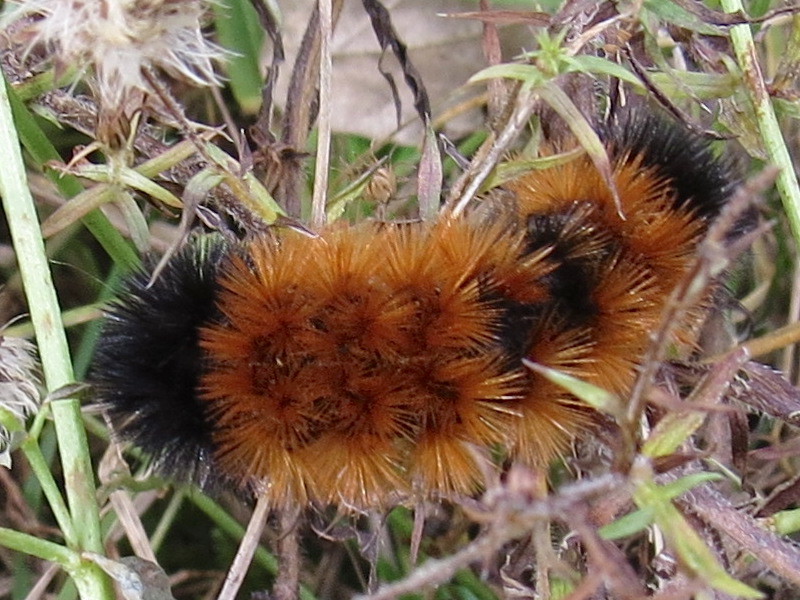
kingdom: Animalia
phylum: Arthropoda
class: Insecta
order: Lepidoptera
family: Erebidae
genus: Pyrrharctia
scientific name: Pyrrharctia isabella
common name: Isabella tiger moth
